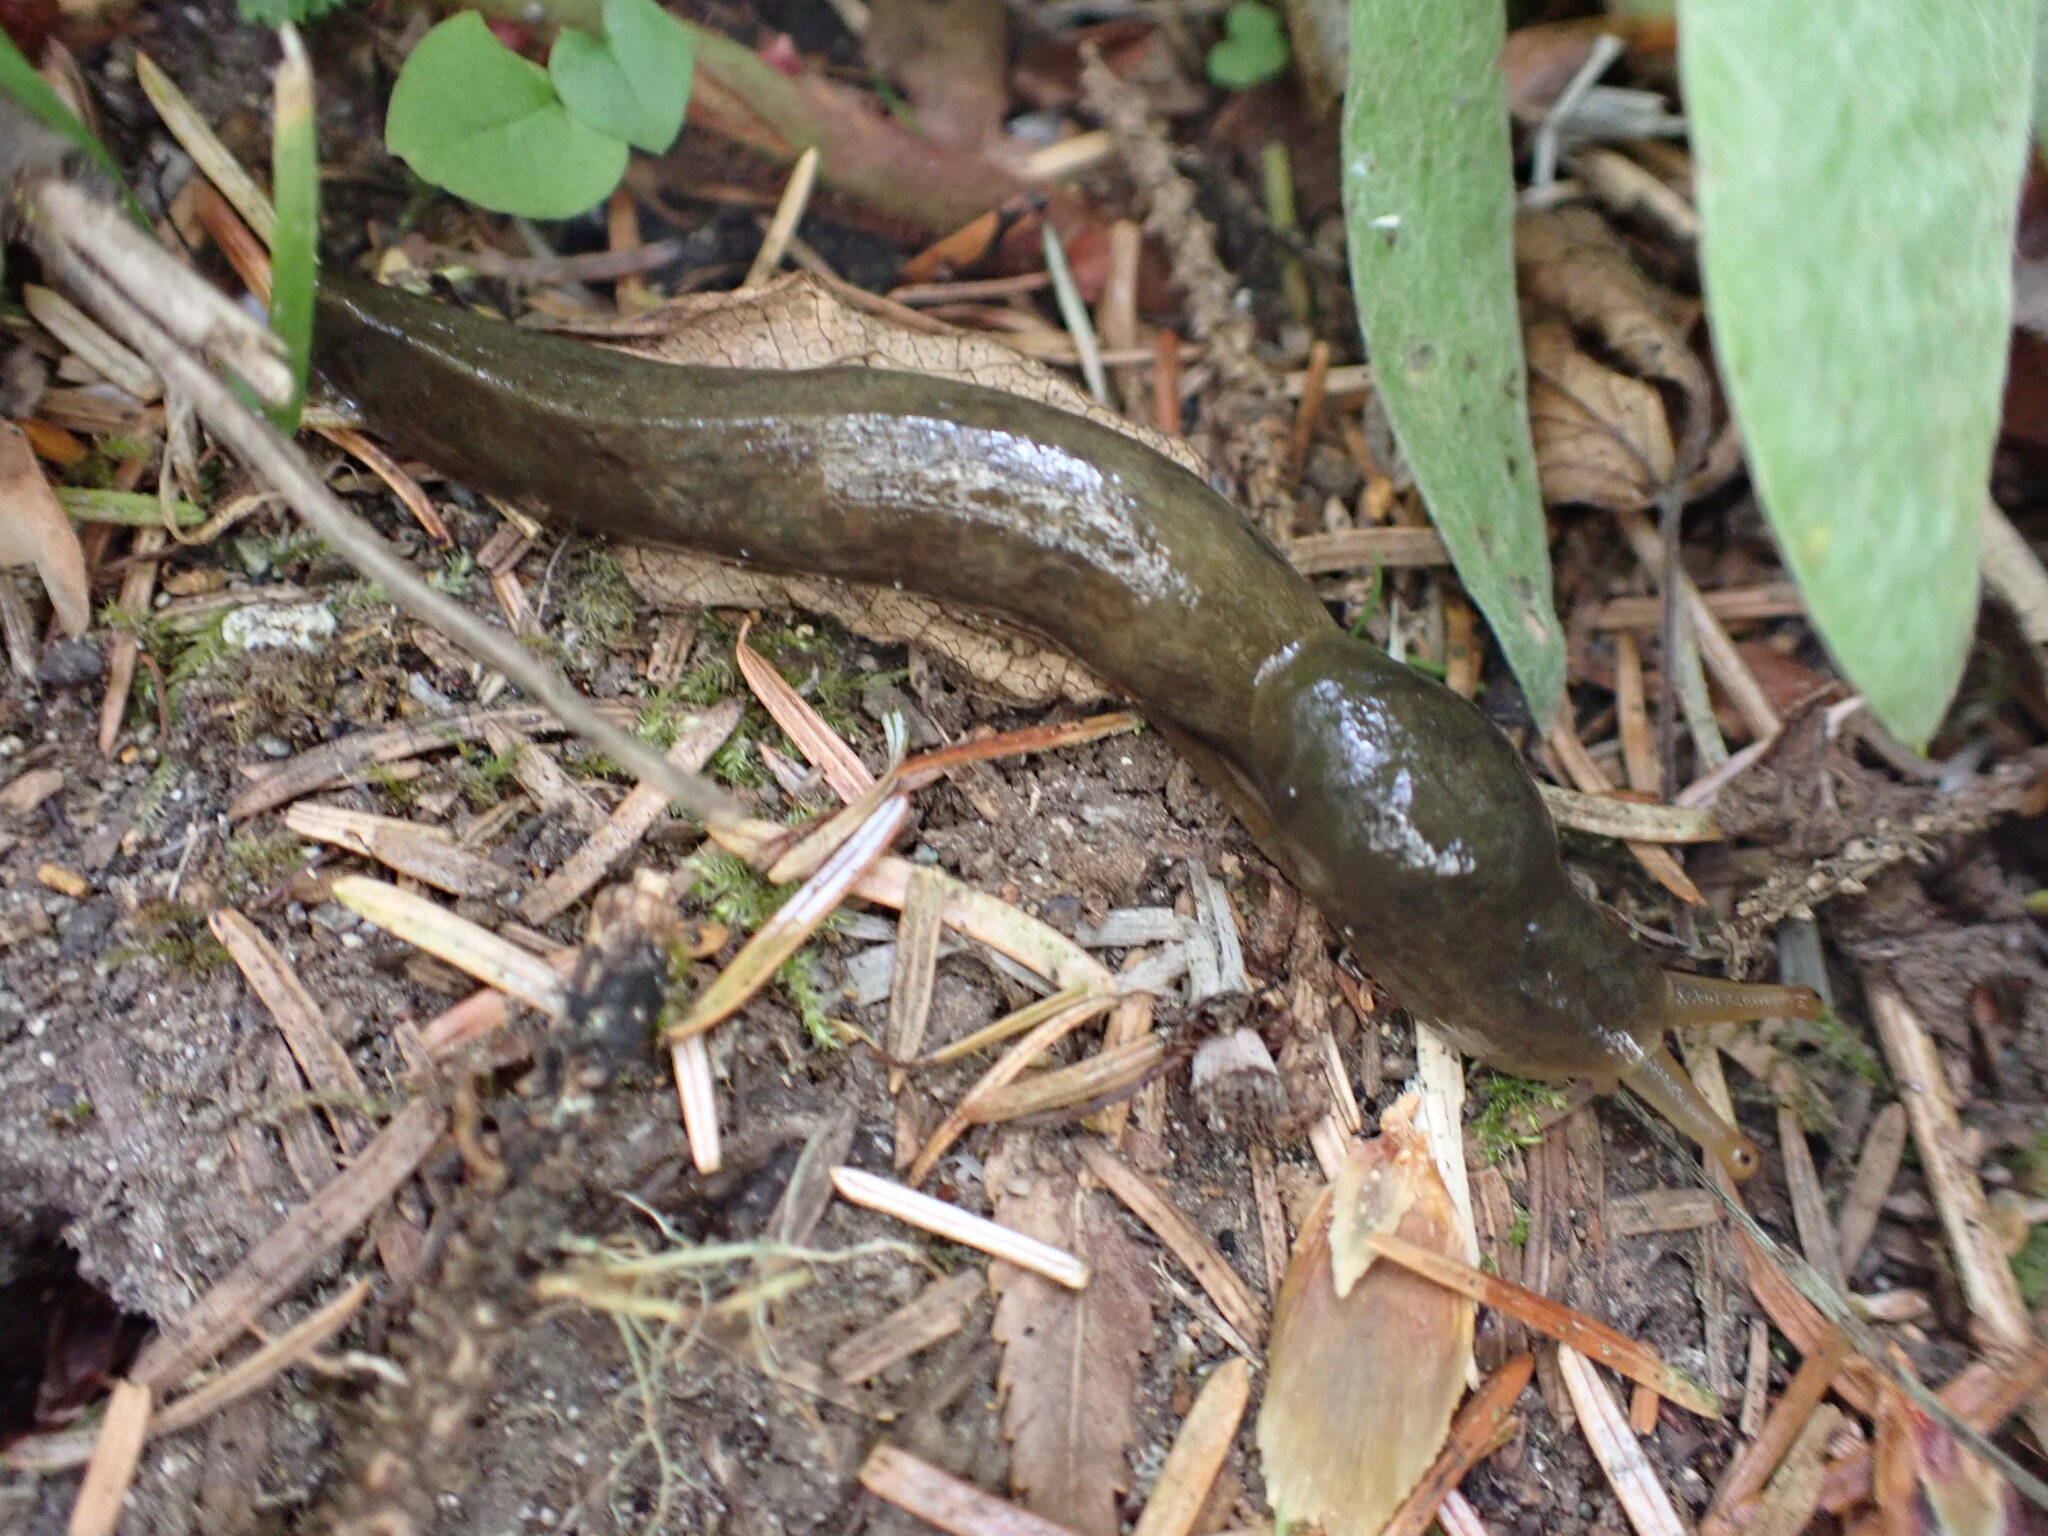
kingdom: Animalia
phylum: Mollusca
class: Gastropoda
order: Stylommatophora
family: Ariolimacidae
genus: Ariolimax
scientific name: Ariolimax columbianus
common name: Pacific banana slug
